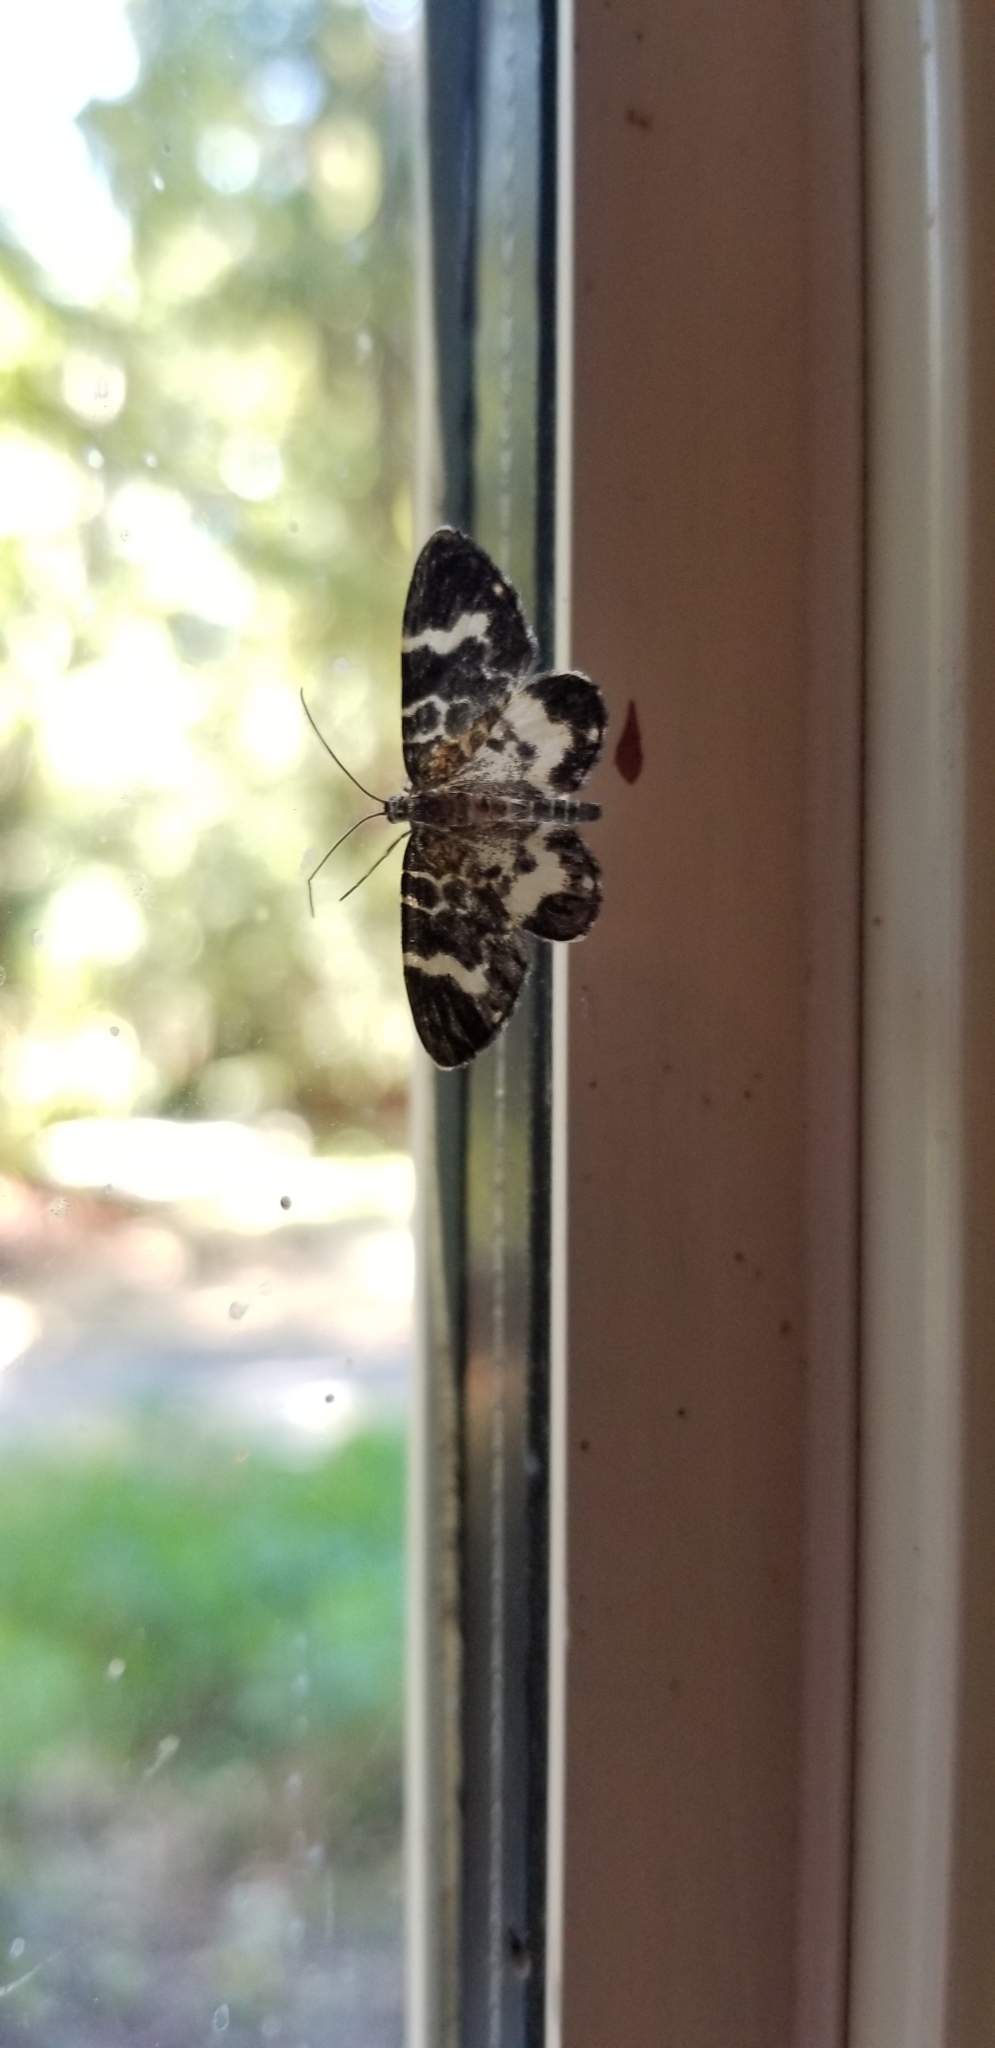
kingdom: Animalia
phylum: Arthropoda
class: Insecta
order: Lepidoptera
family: Geometridae
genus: Trichodezia
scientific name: Trichodezia californiata
